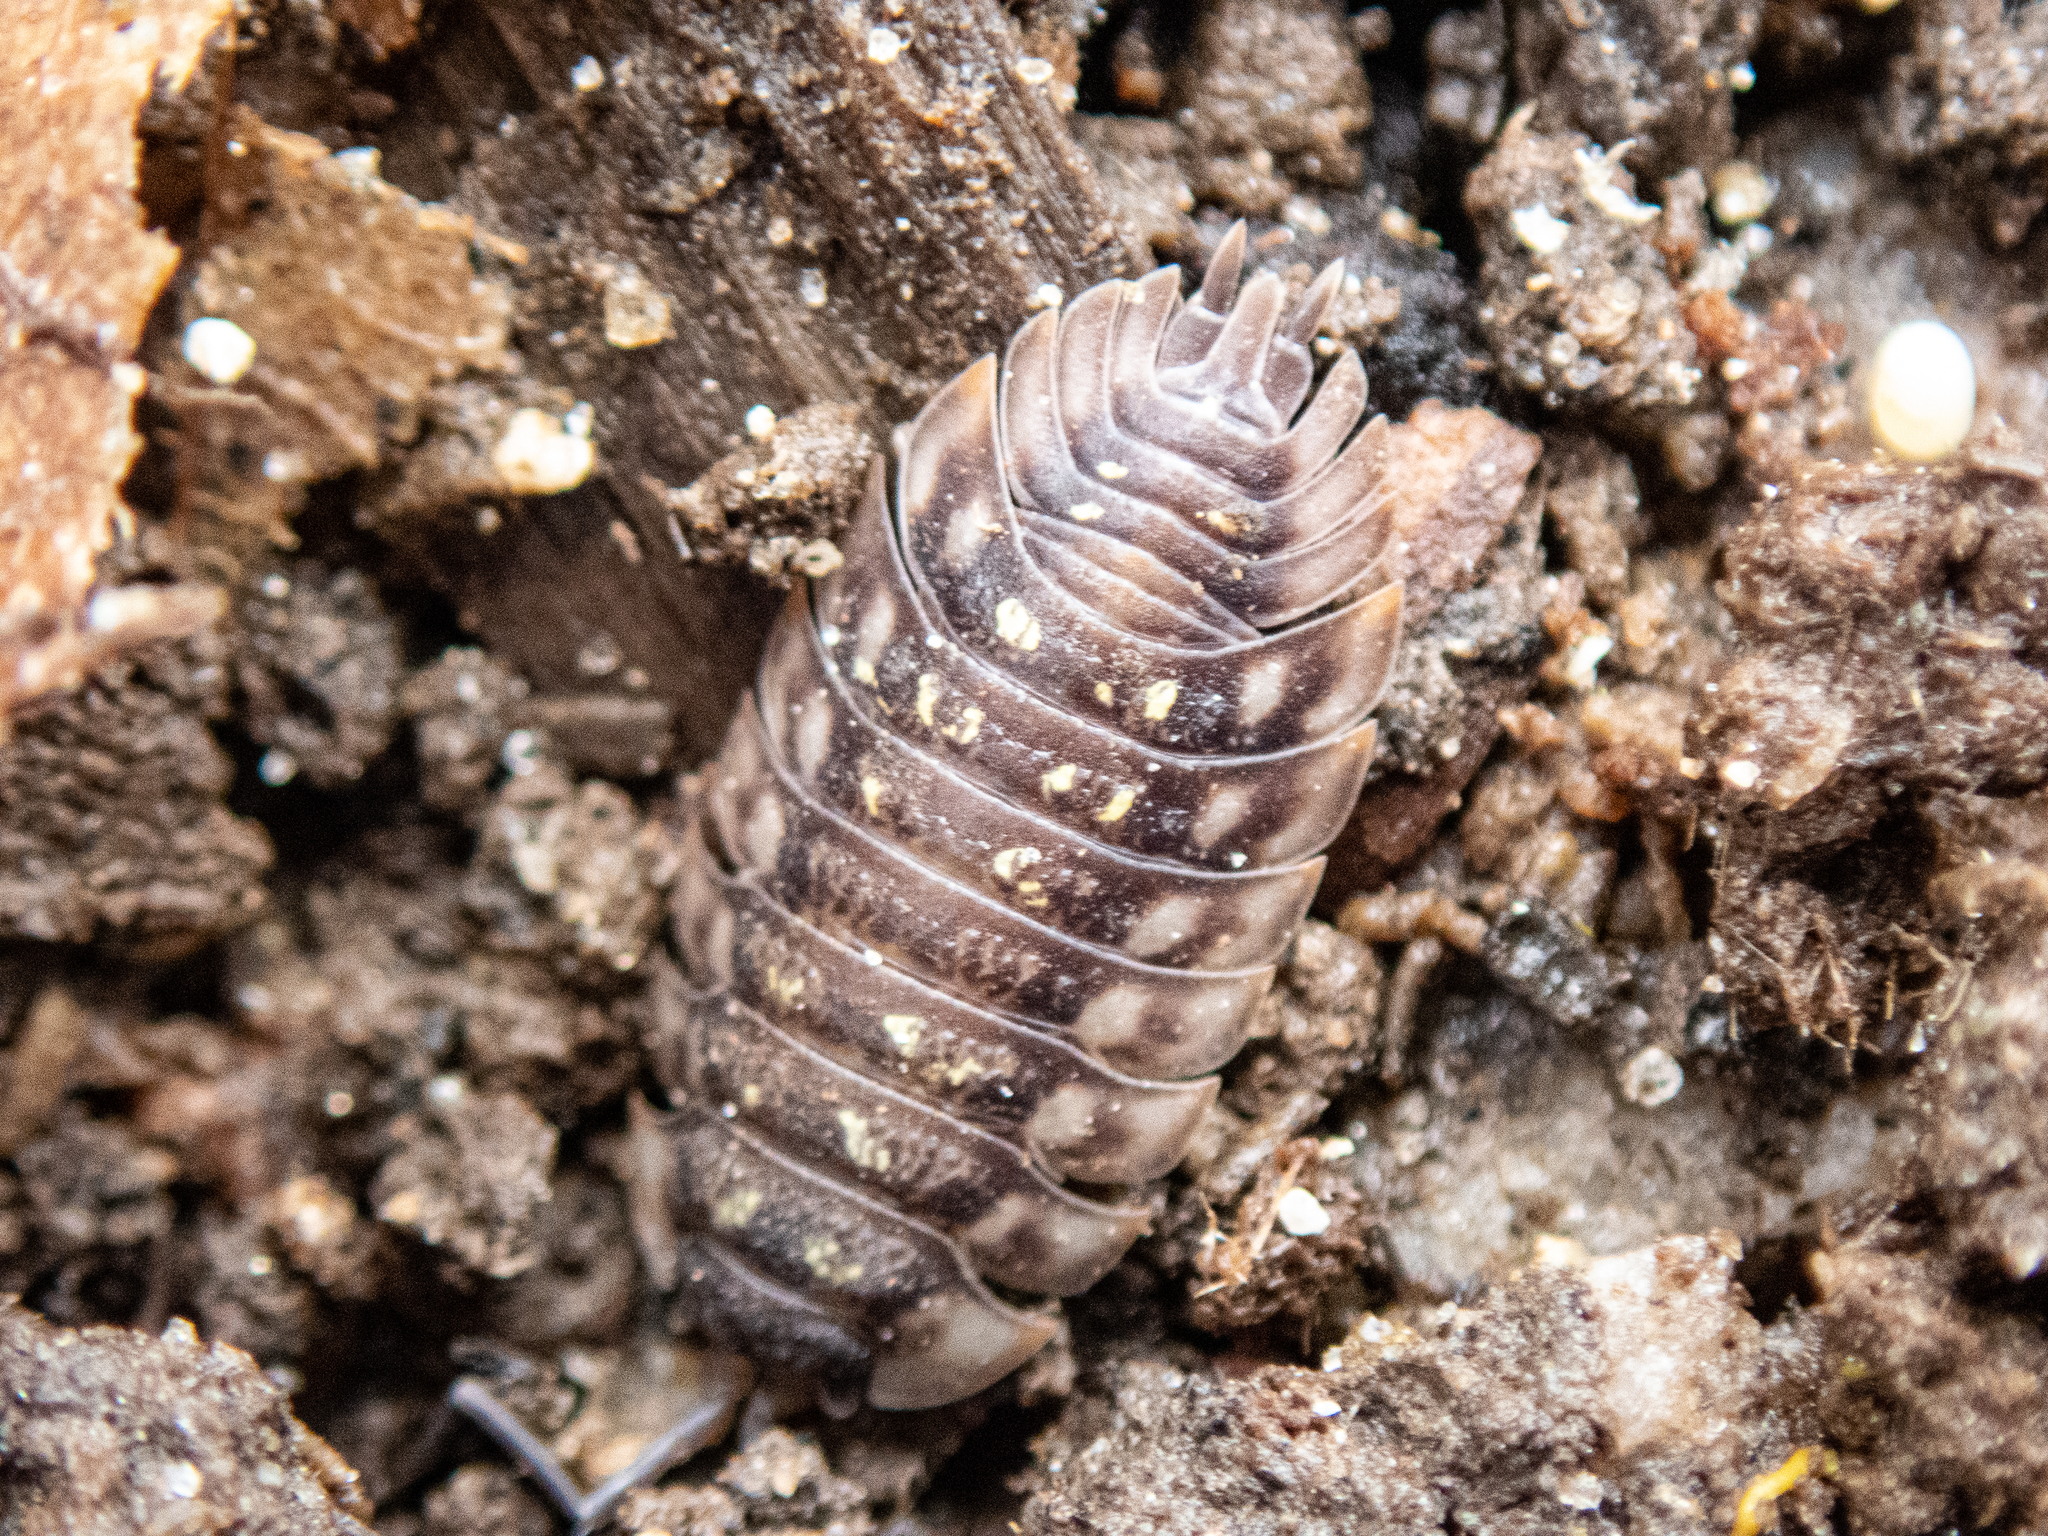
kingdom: Animalia
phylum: Arthropoda
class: Malacostraca
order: Isopoda
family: Oniscidae
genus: Oniscus
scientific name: Oniscus asellus
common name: Common shiny woodlouse
